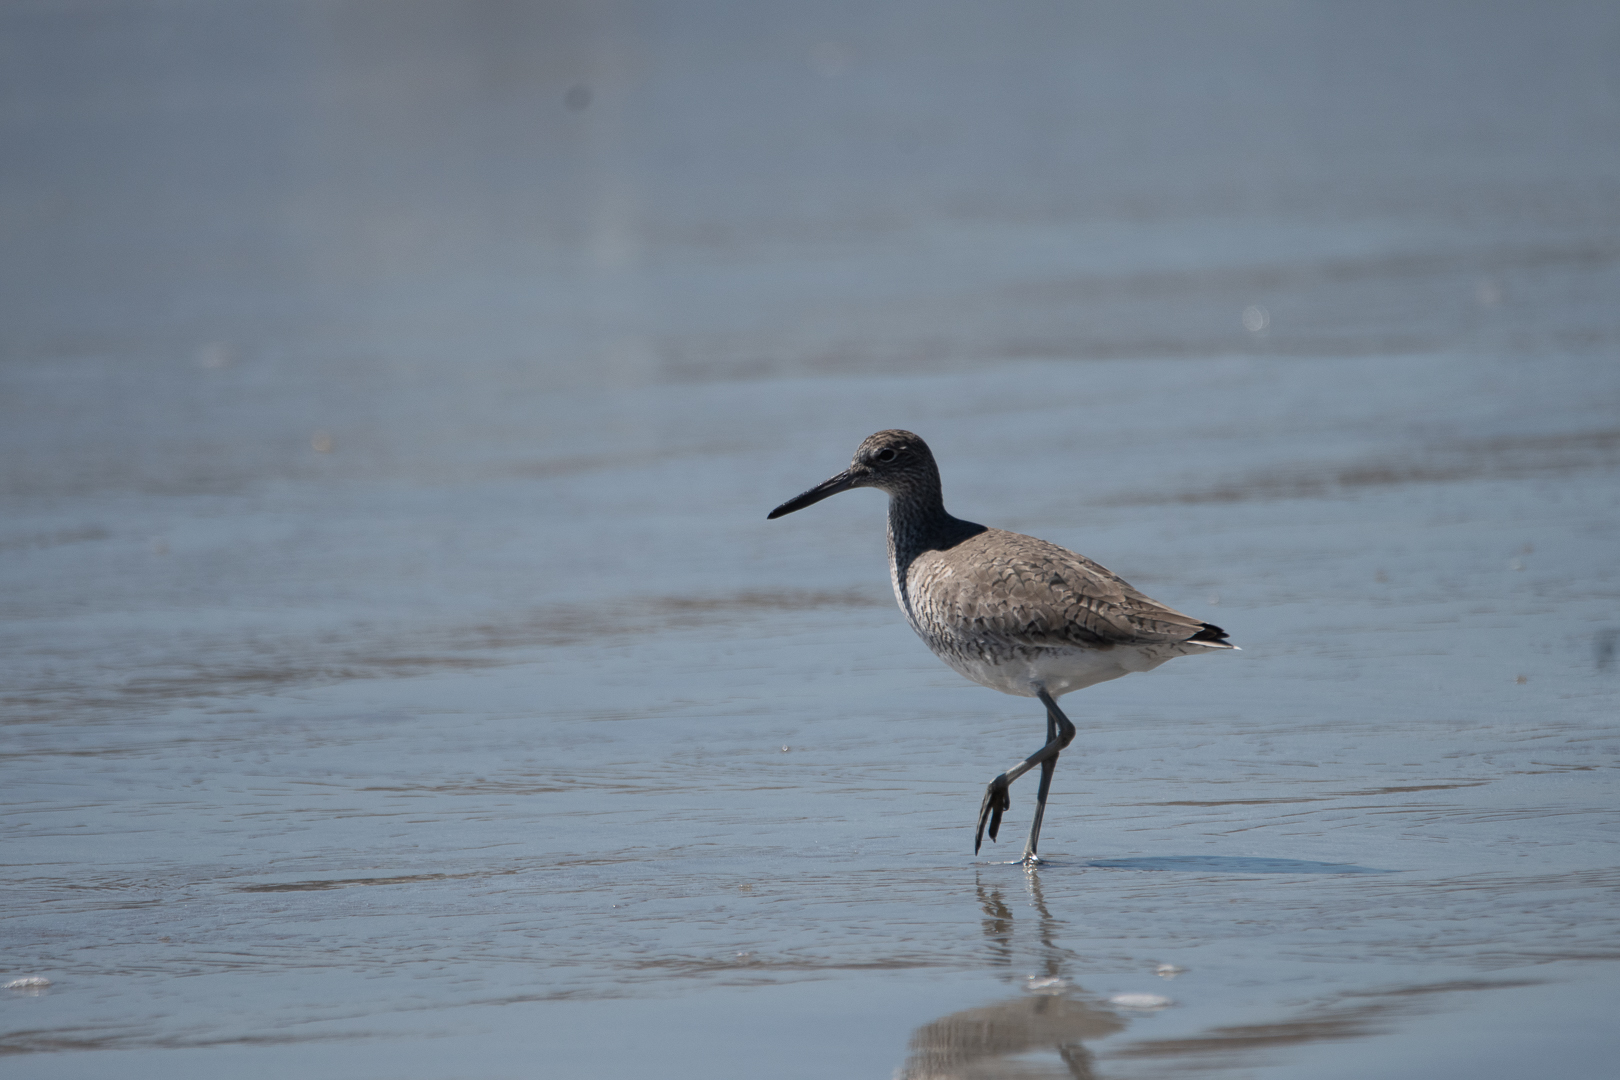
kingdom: Animalia
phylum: Chordata
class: Aves
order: Charadriiformes
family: Scolopacidae
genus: Tringa
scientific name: Tringa semipalmata
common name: Willet
